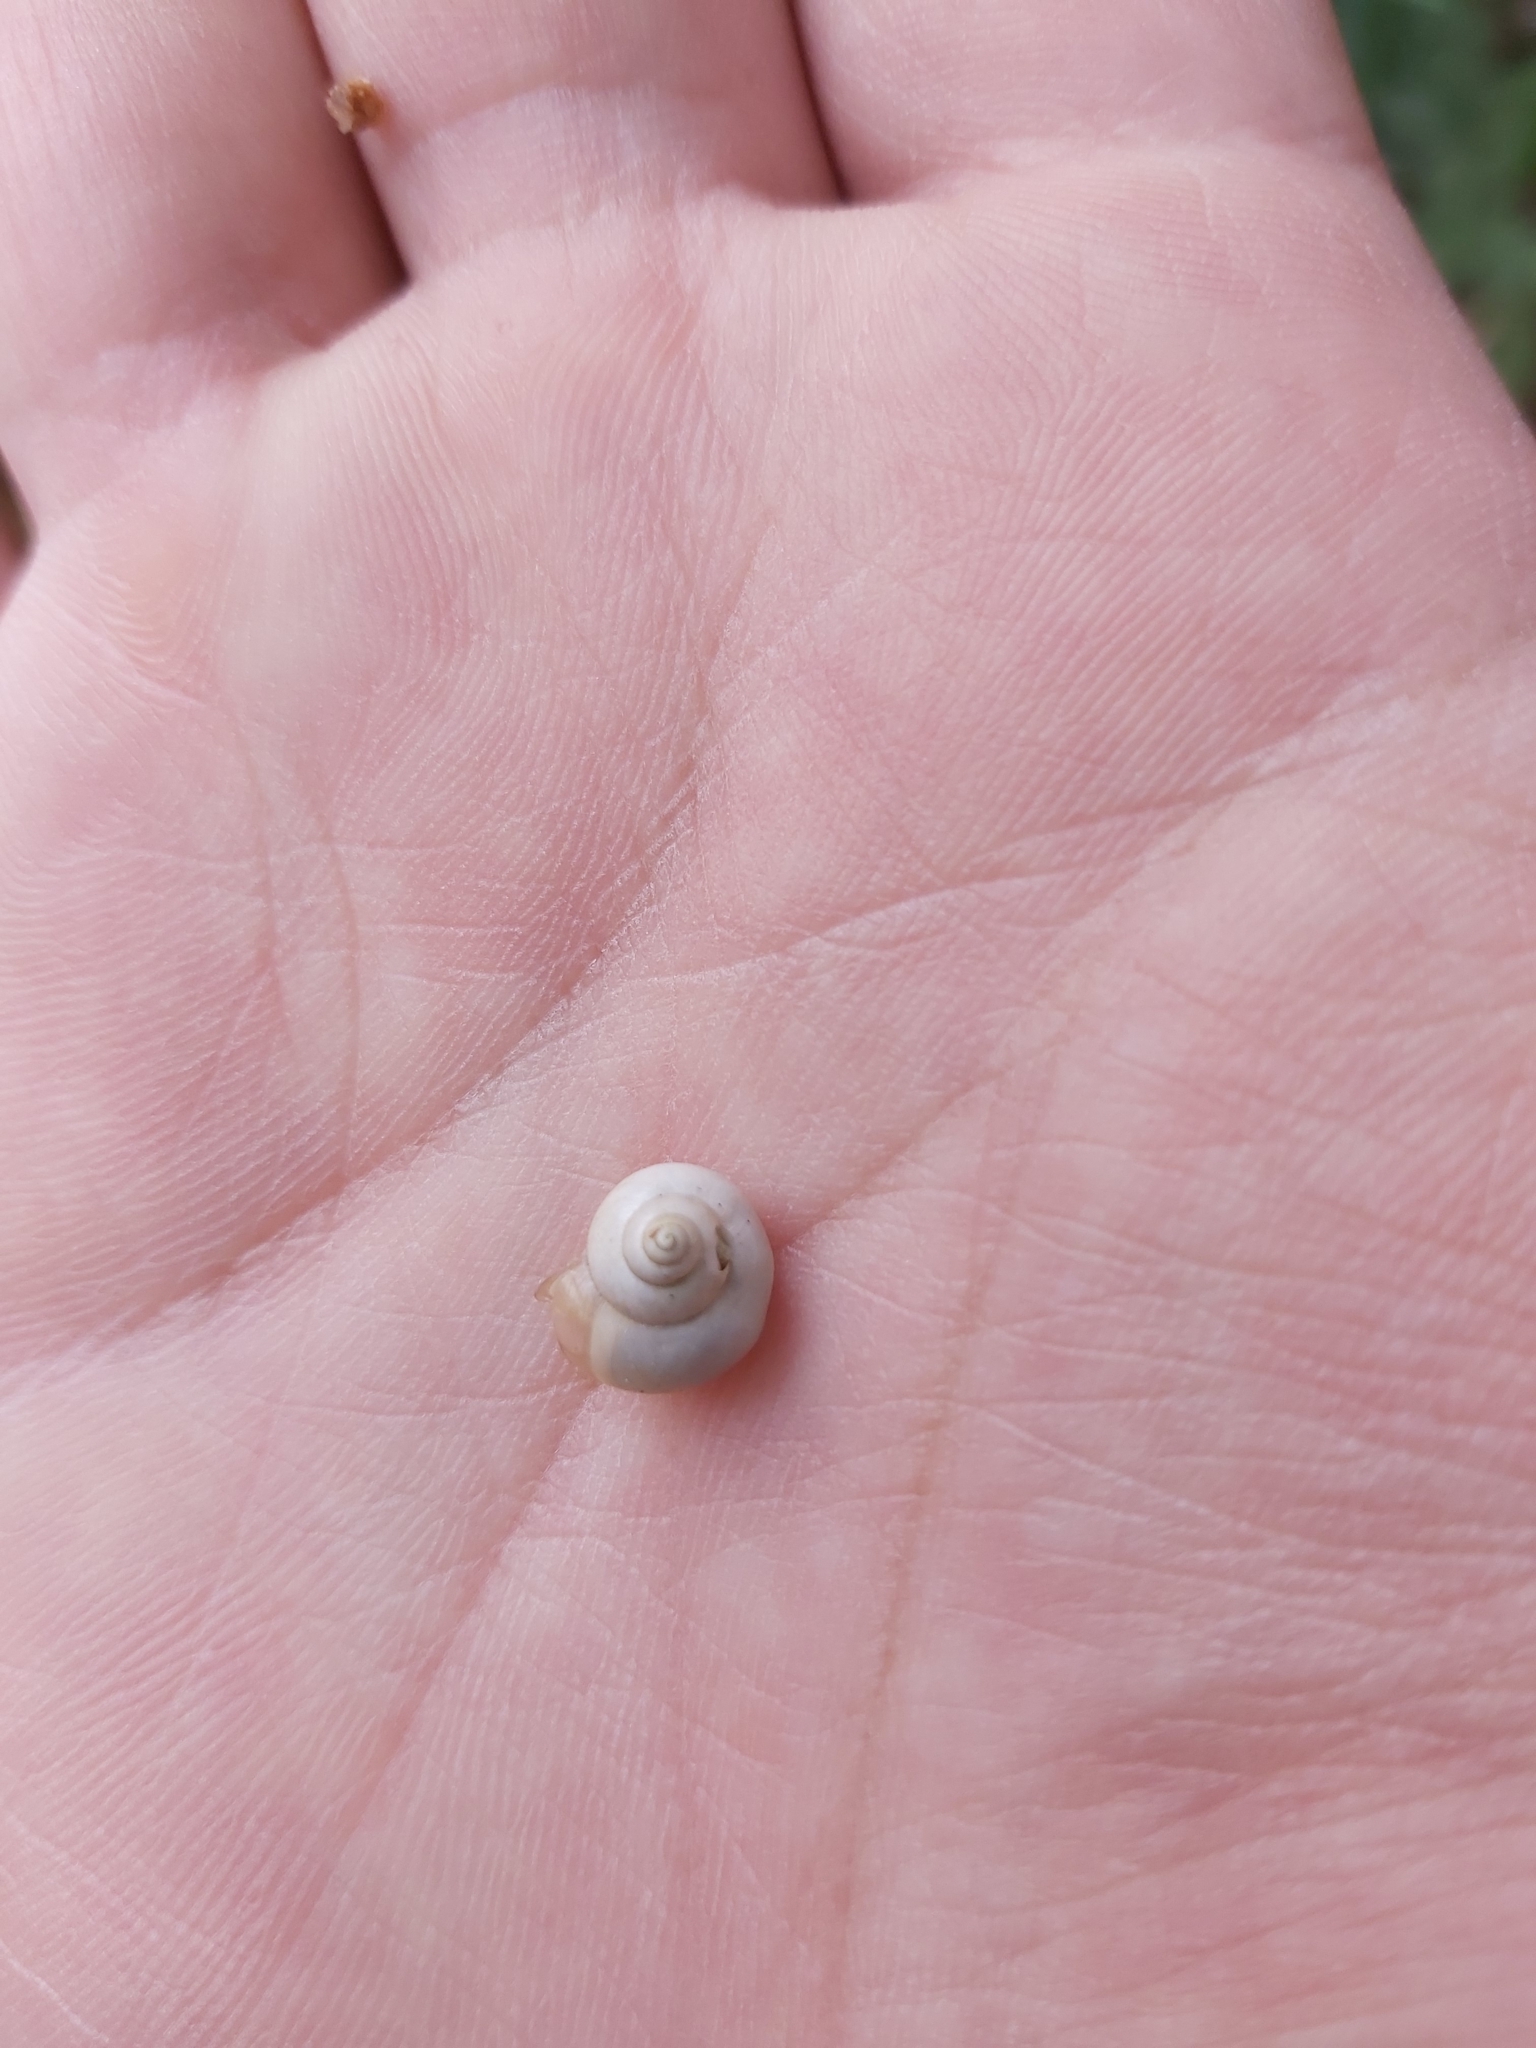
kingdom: Animalia
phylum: Mollusca
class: Gastropoda
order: Architaenioglossa
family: Cyclophoridae
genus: Leptopoma
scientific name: Leptopoma perlucidum
